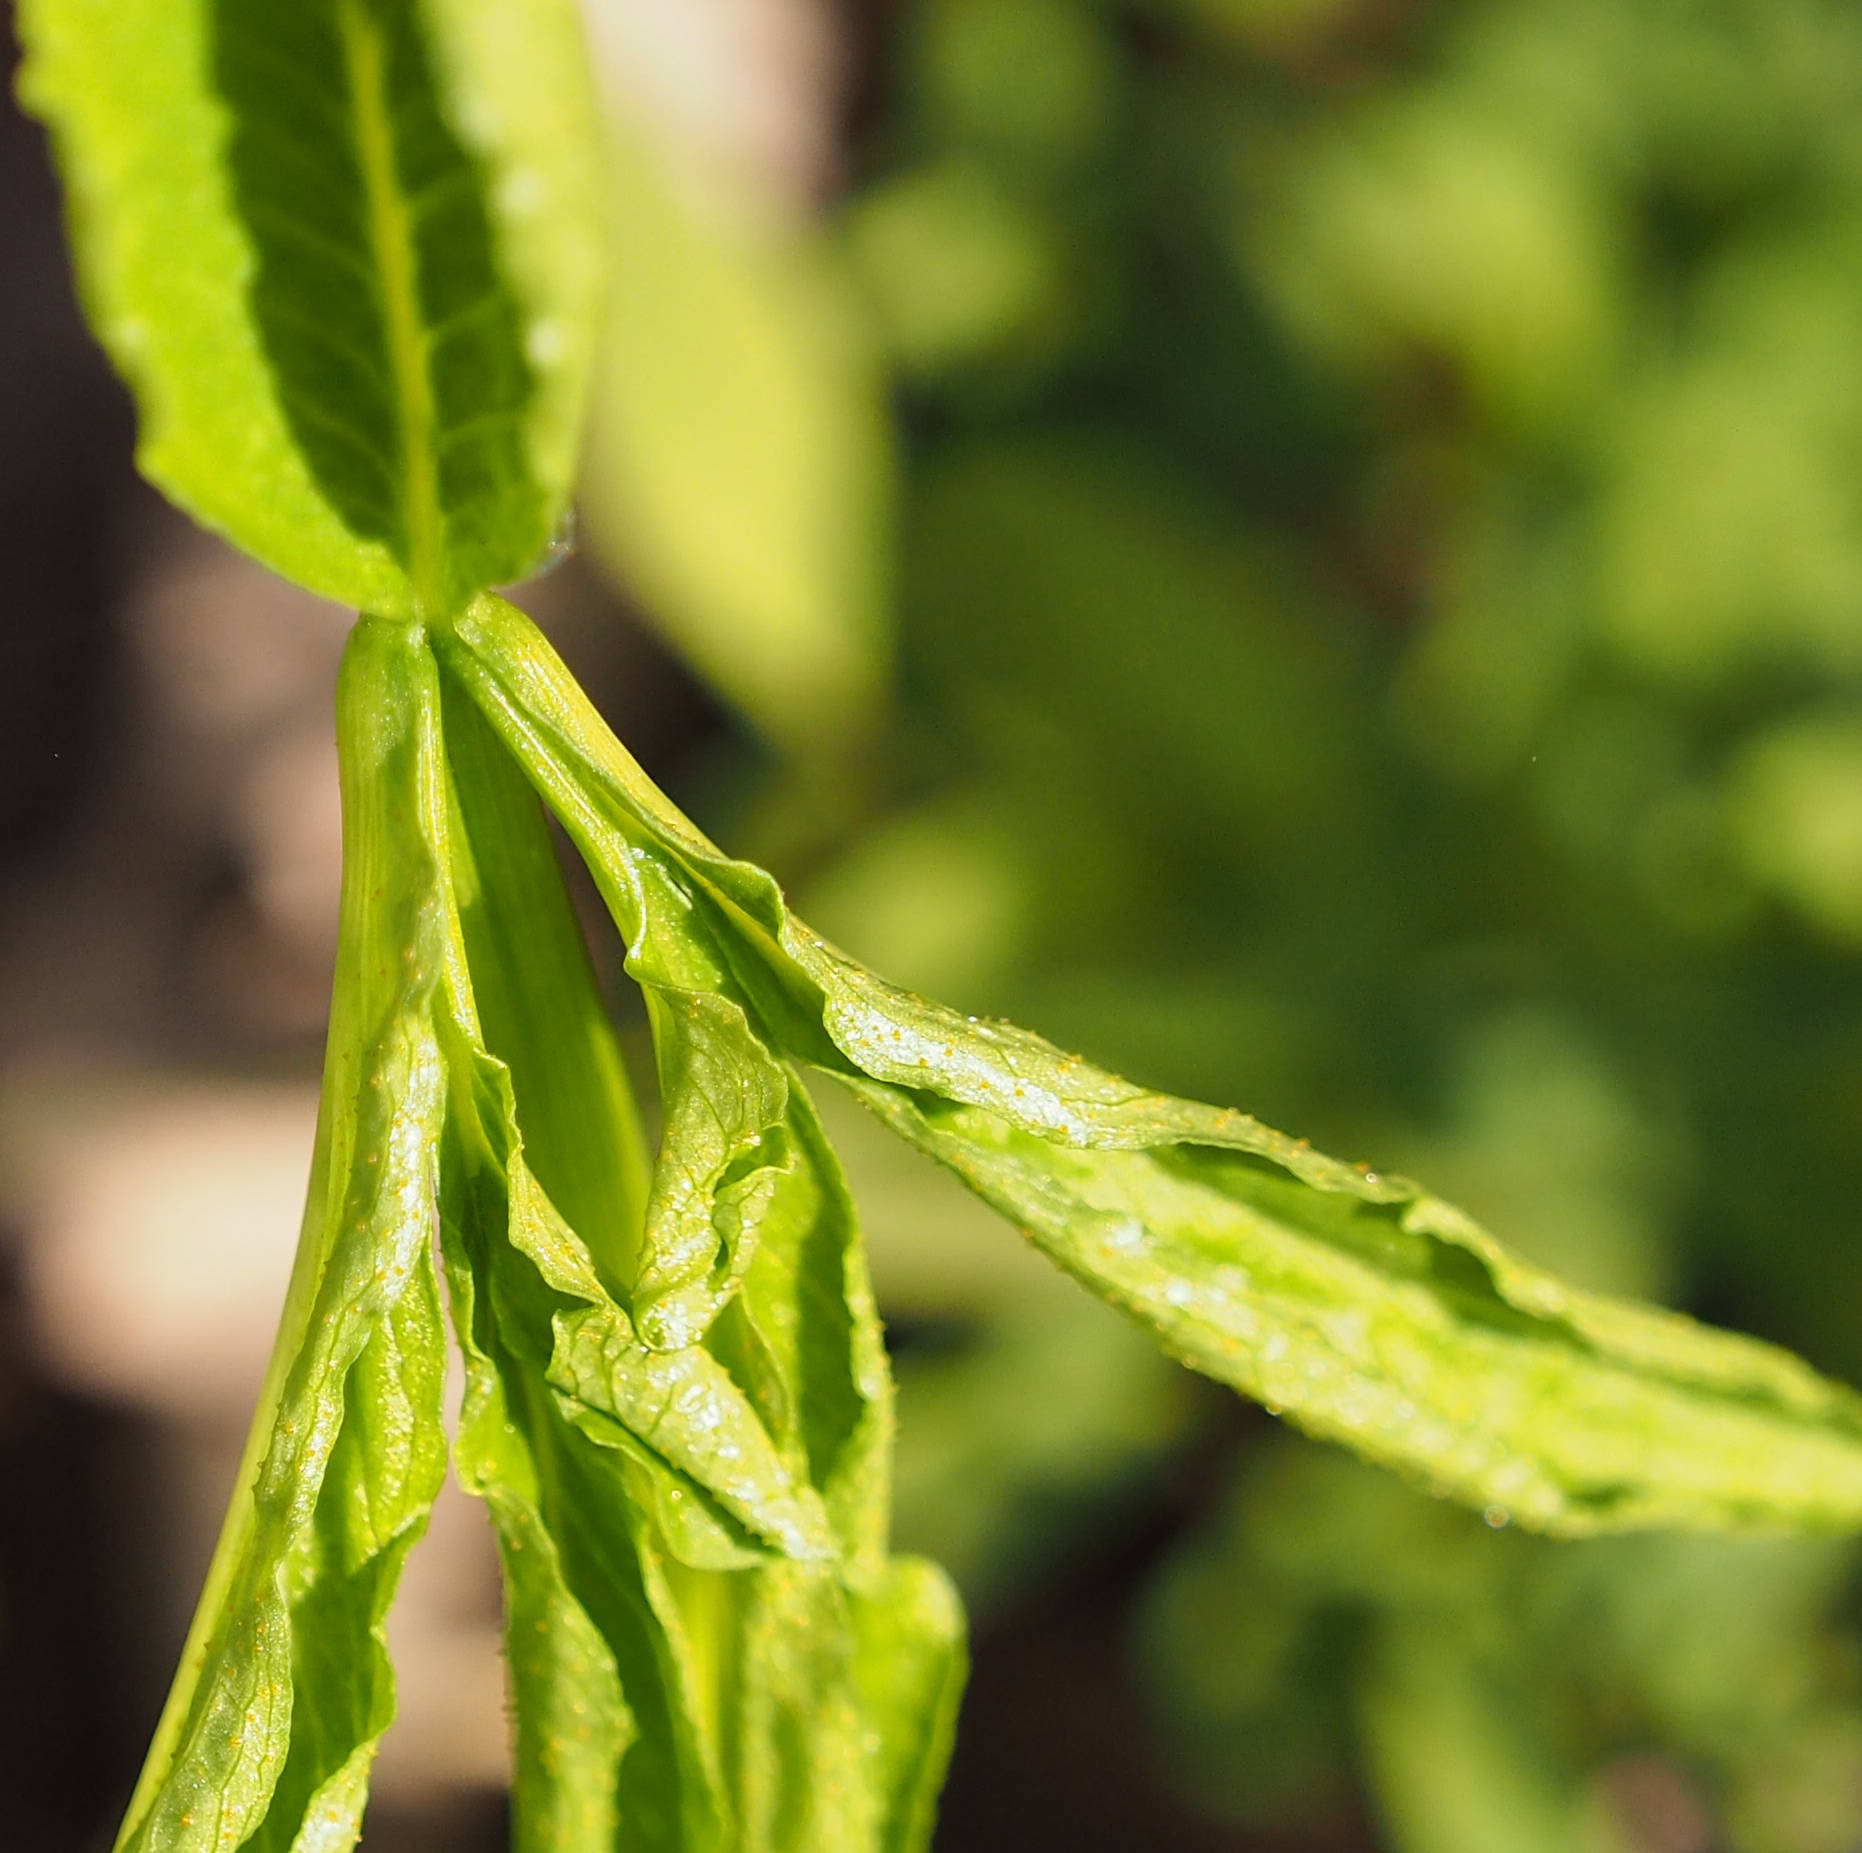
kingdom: Plantae
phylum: Tracheophyta
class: Liliopsida
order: Alismatales
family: Araceae
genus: Arisaema
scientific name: Arisaema dracontium
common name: Dragon-arum
